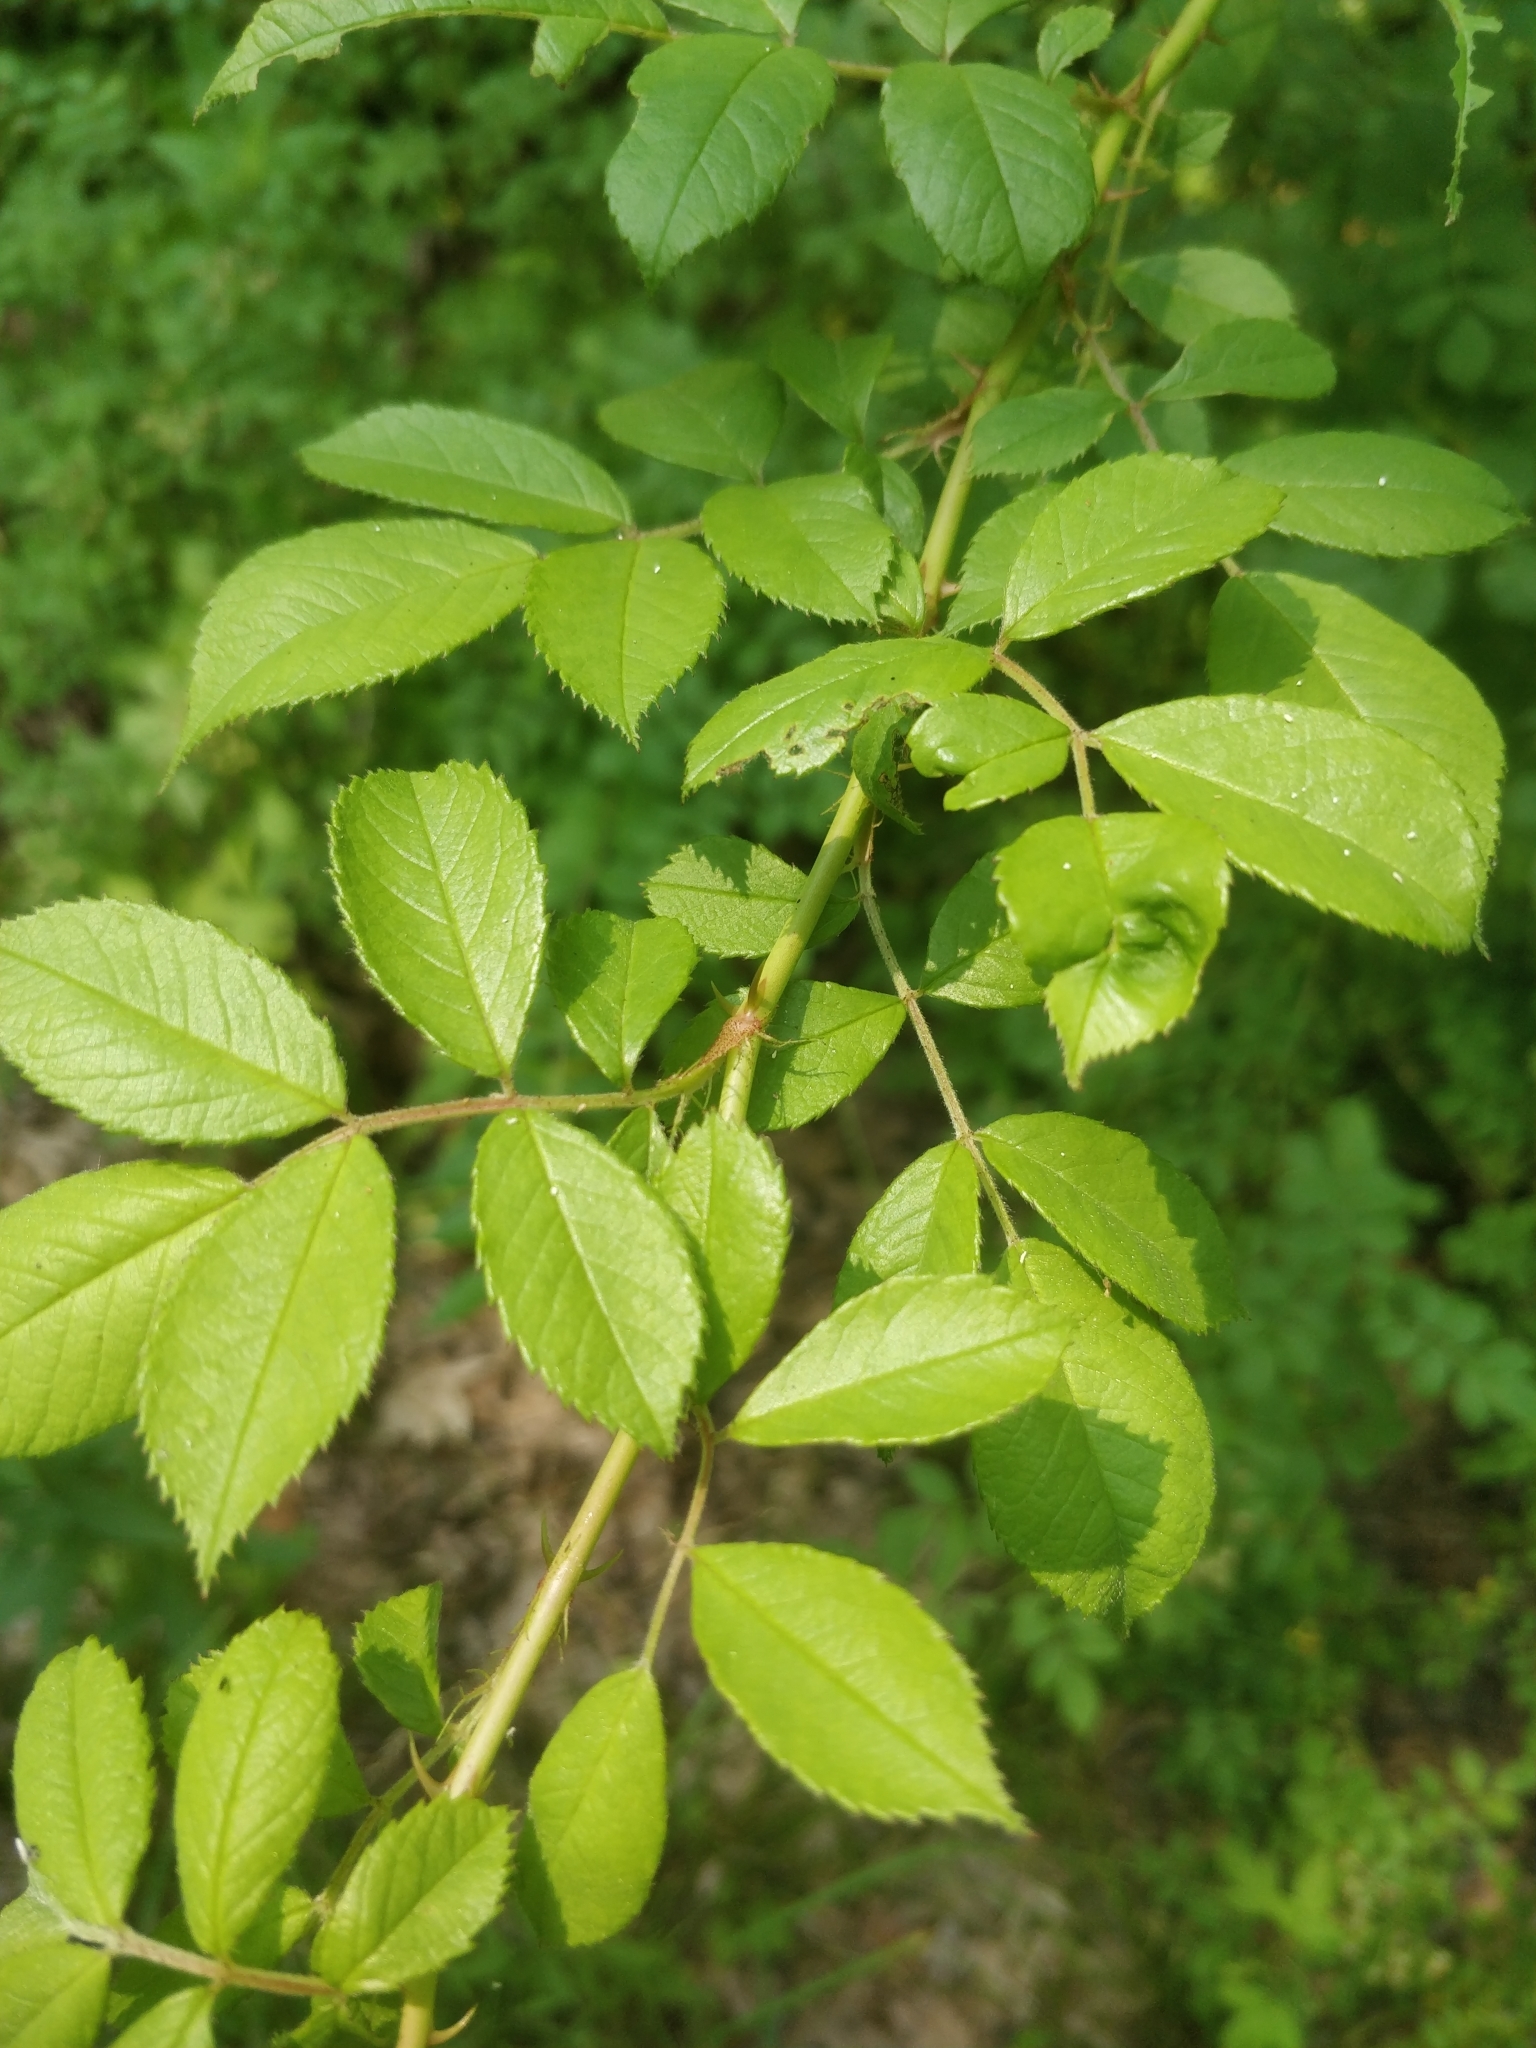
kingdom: Plantae
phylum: Tracheophyta
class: Magnoliopsida
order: Rosales
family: Rosaceae
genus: Rosa
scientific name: Rosa multiflora
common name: Multiflora rose
